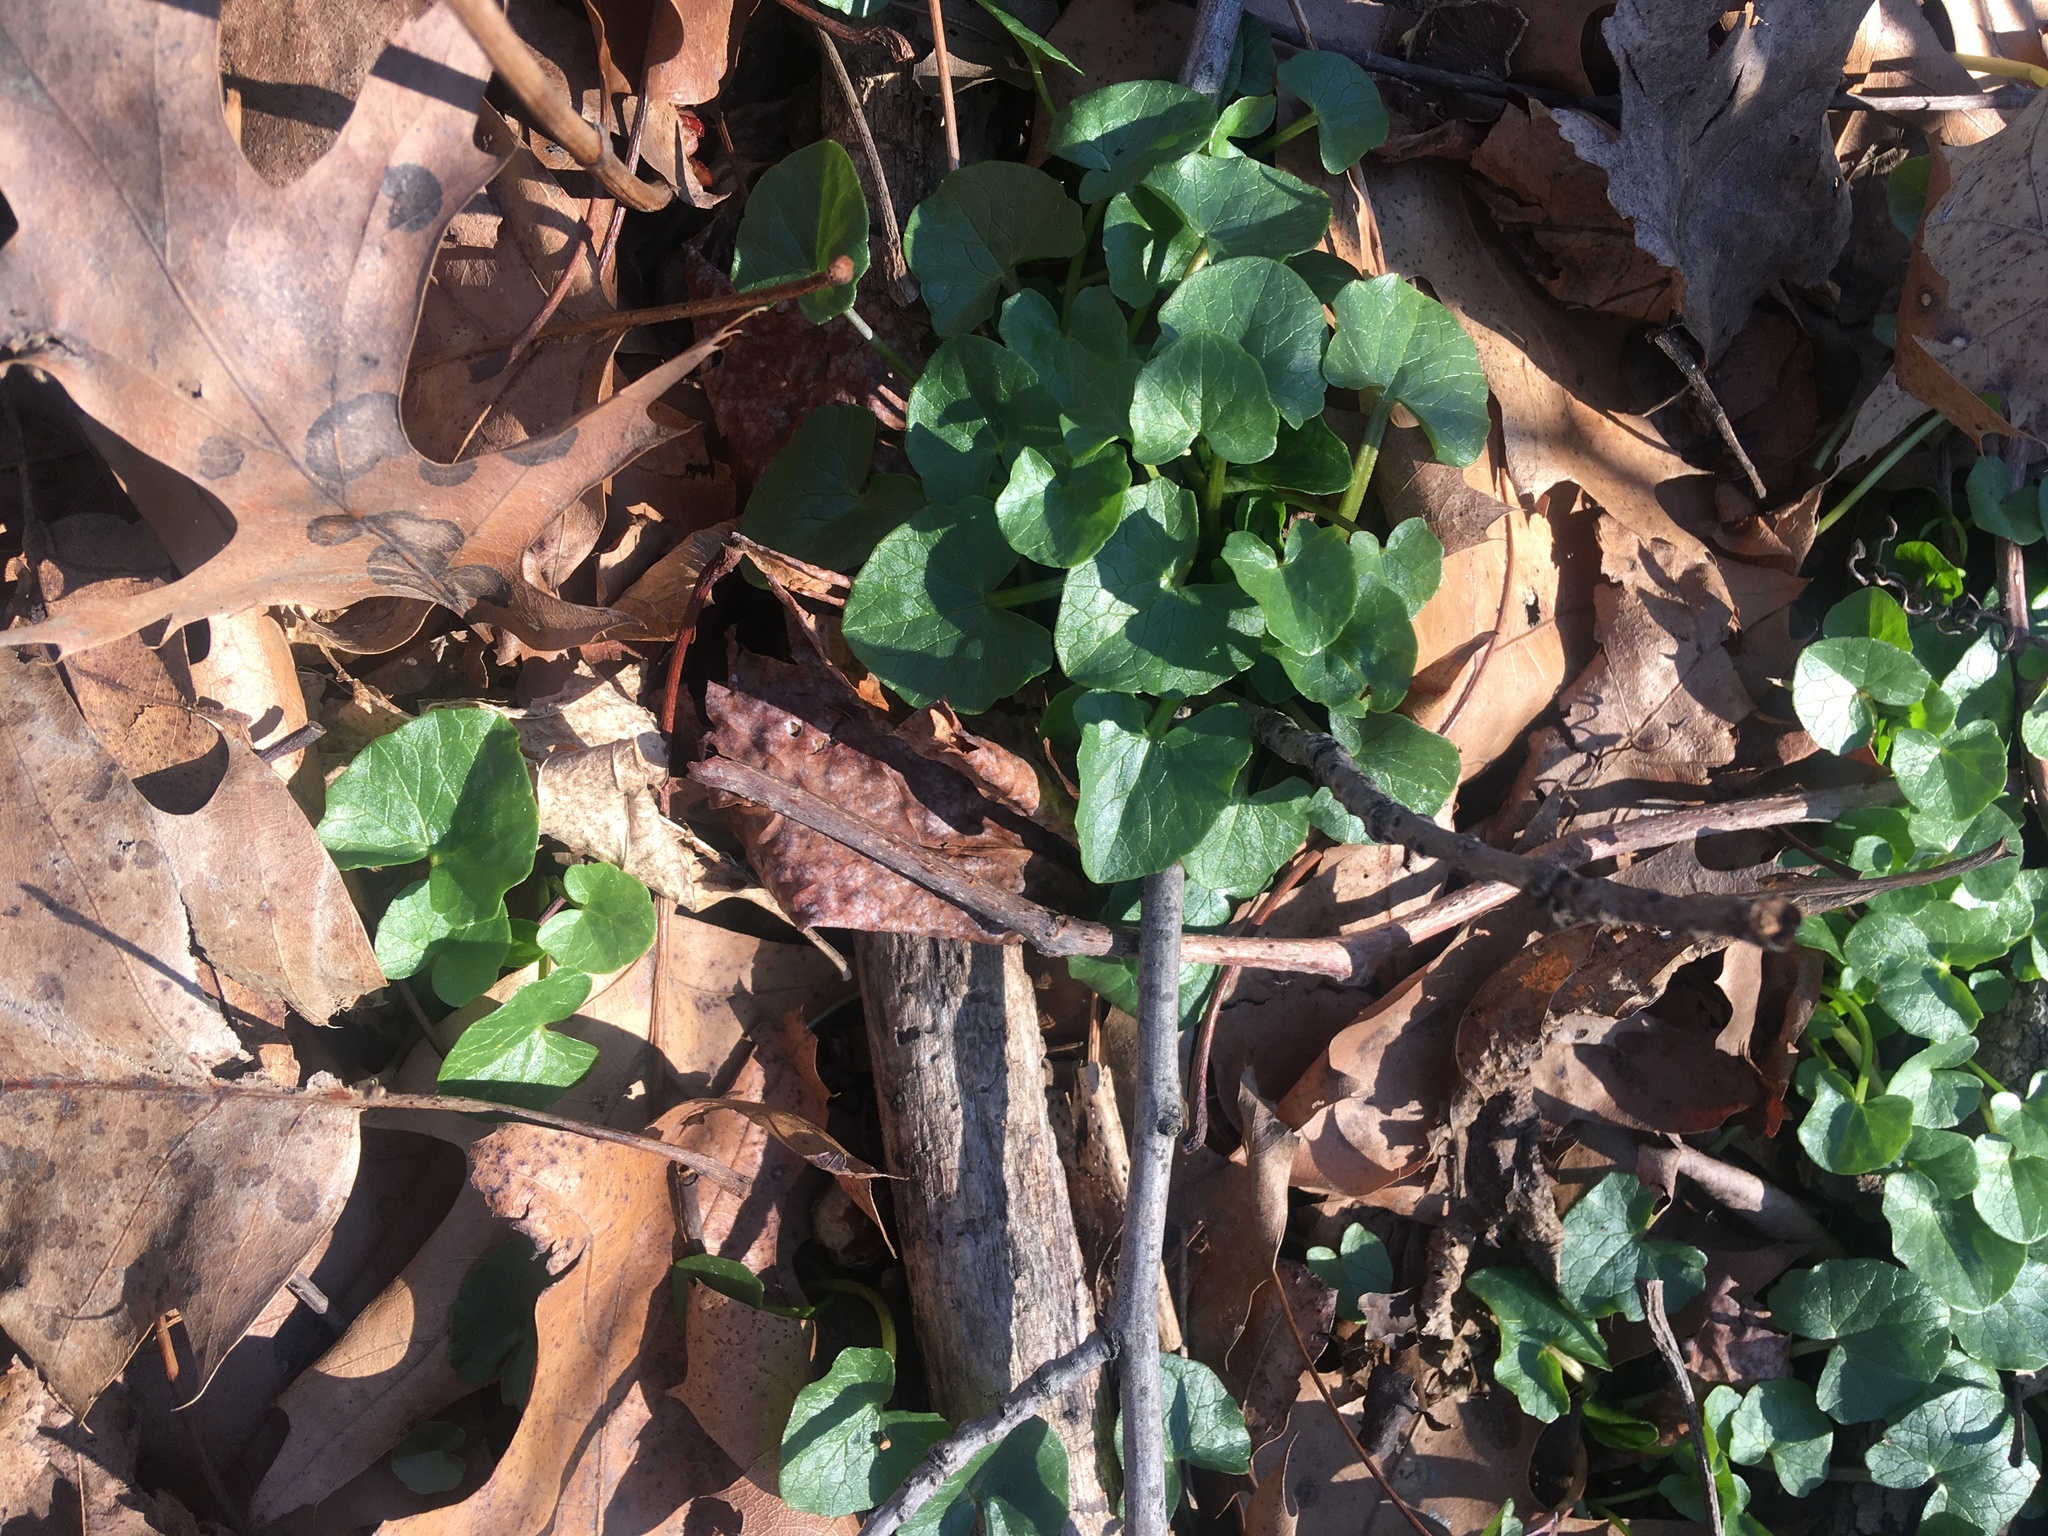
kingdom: Plantae
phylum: Tracheophyta
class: Magnoliopsida
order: Ranunculales
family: Ranunculaceae
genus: Ficaria
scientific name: Ficaria verna
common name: Lesser celandine
